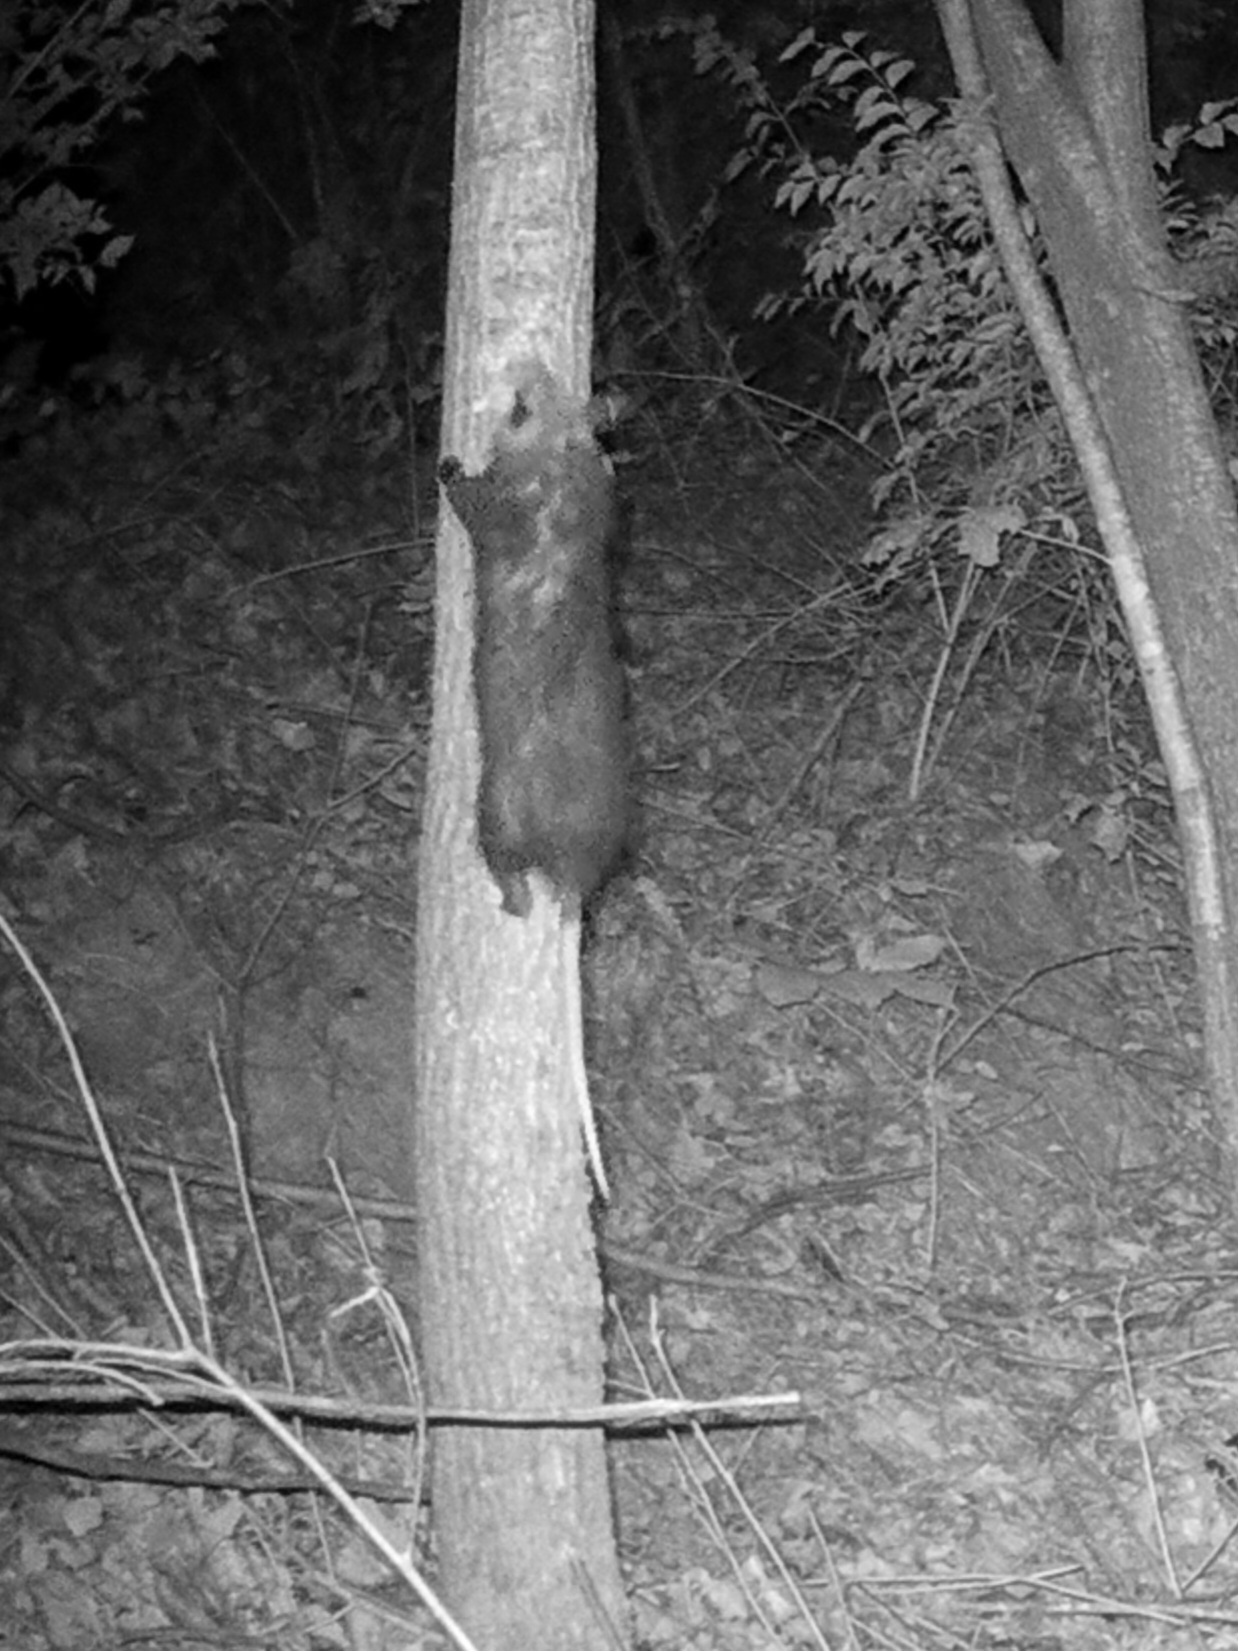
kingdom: Animalia
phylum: Chordata
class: Mammalia
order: Didelphimorphia
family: Didelphidae
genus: Didelphis
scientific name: Didelphis virginiana
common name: Virginia opossum
